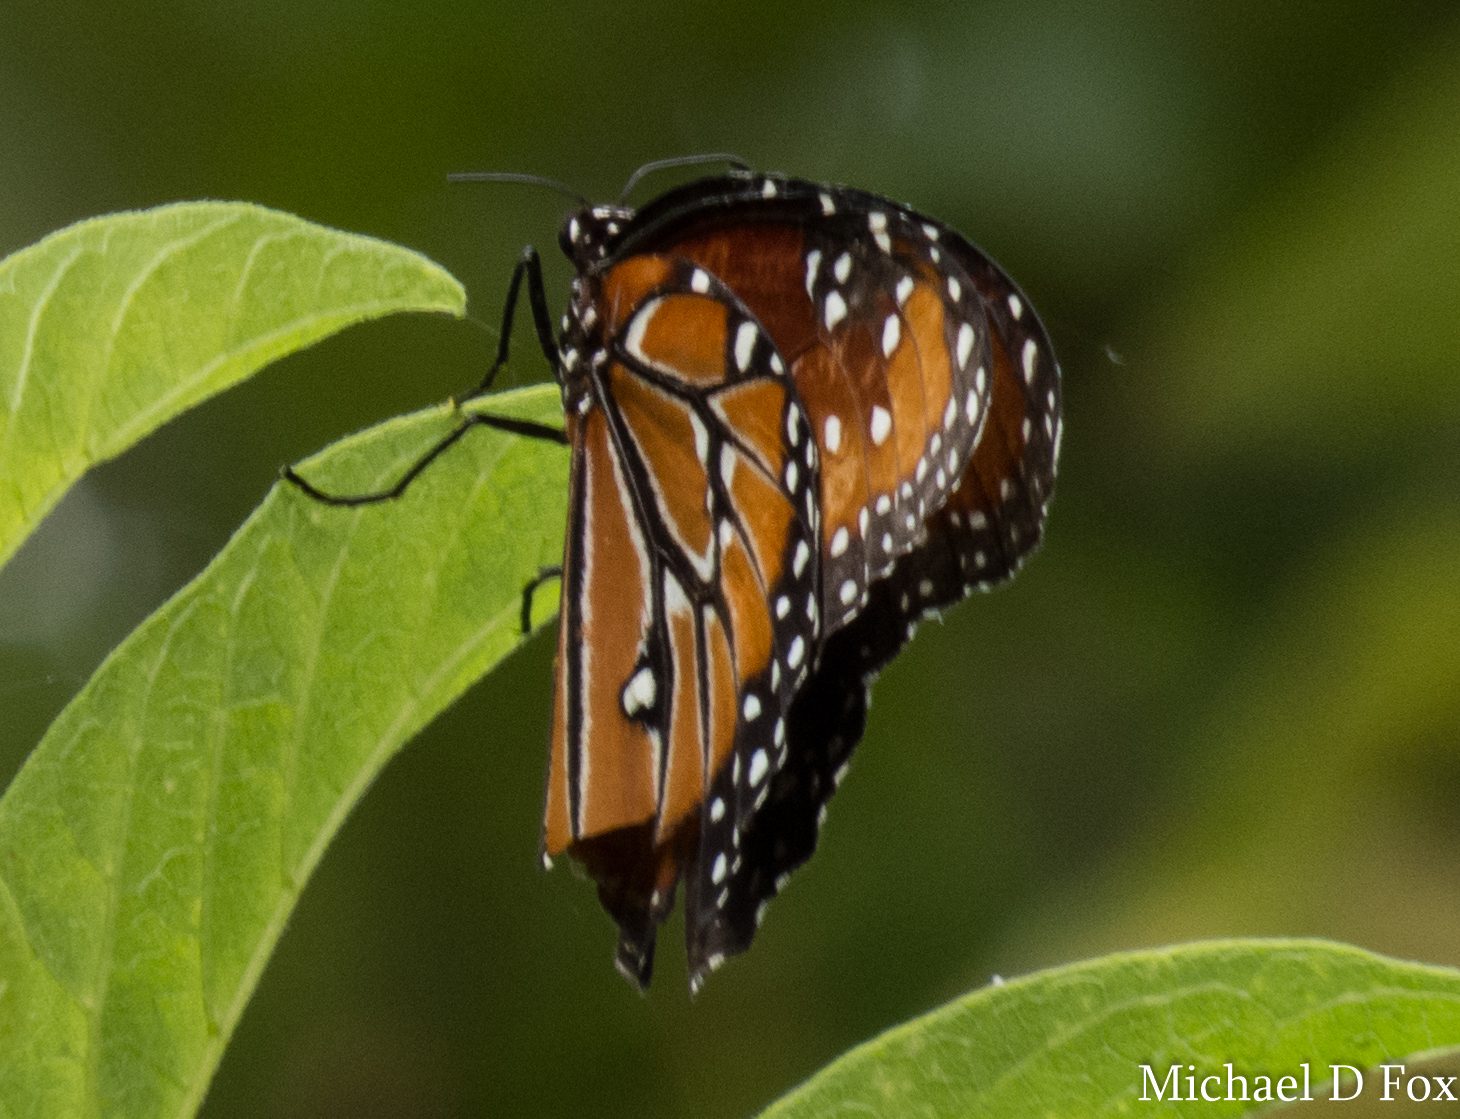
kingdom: Animalia
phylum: Arthropoda
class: Insecta
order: Lepidoptera
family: Nymphalidae
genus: Danaus
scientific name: Danaus gilippus
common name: Queen
